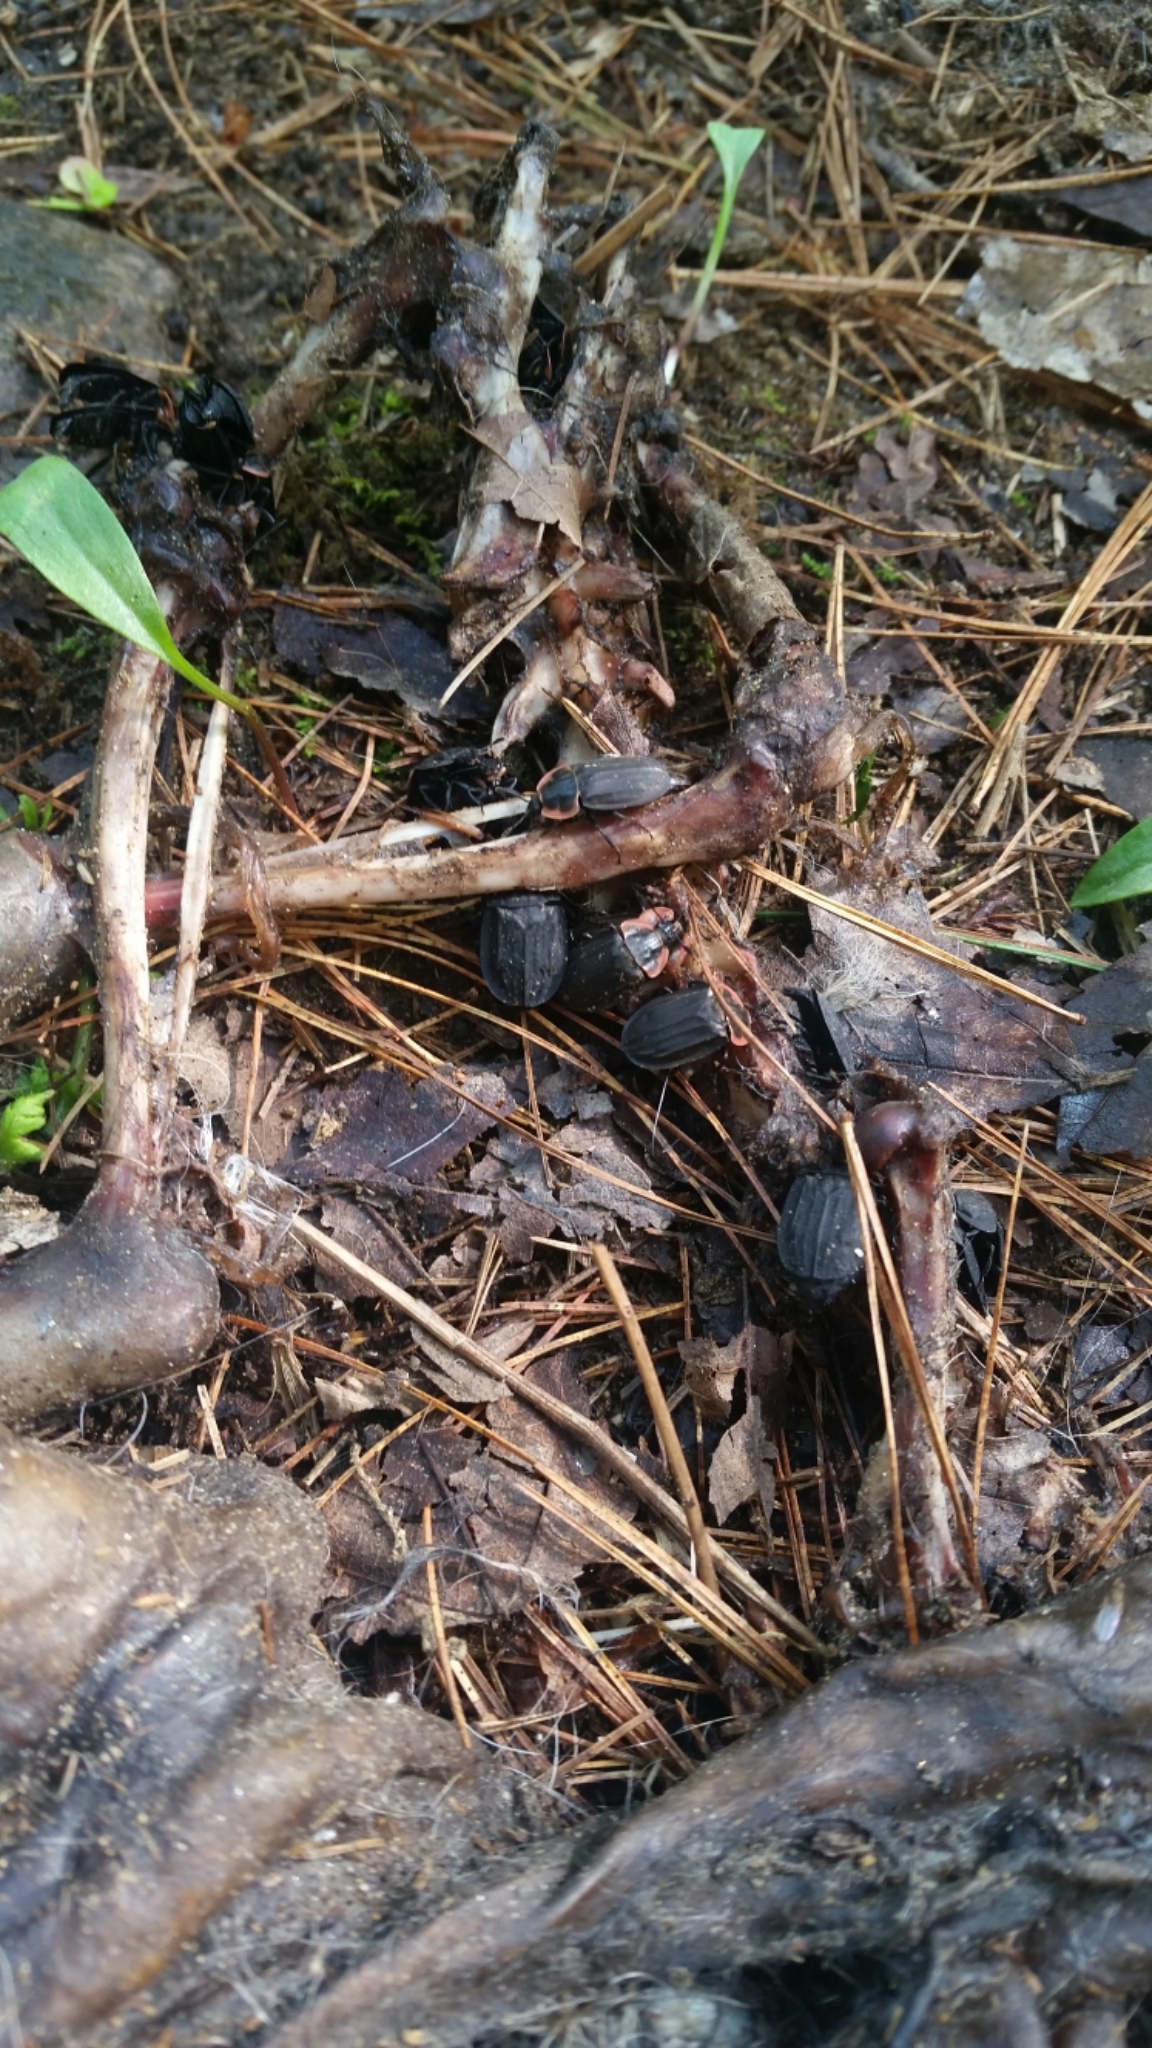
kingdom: Animalia
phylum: Arthropoda
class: Insecta
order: Coleoptera
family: Staphylinidae
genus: Oiceoptoma
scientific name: Oiceoptoma noveboracense
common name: Margined carrion beetle
